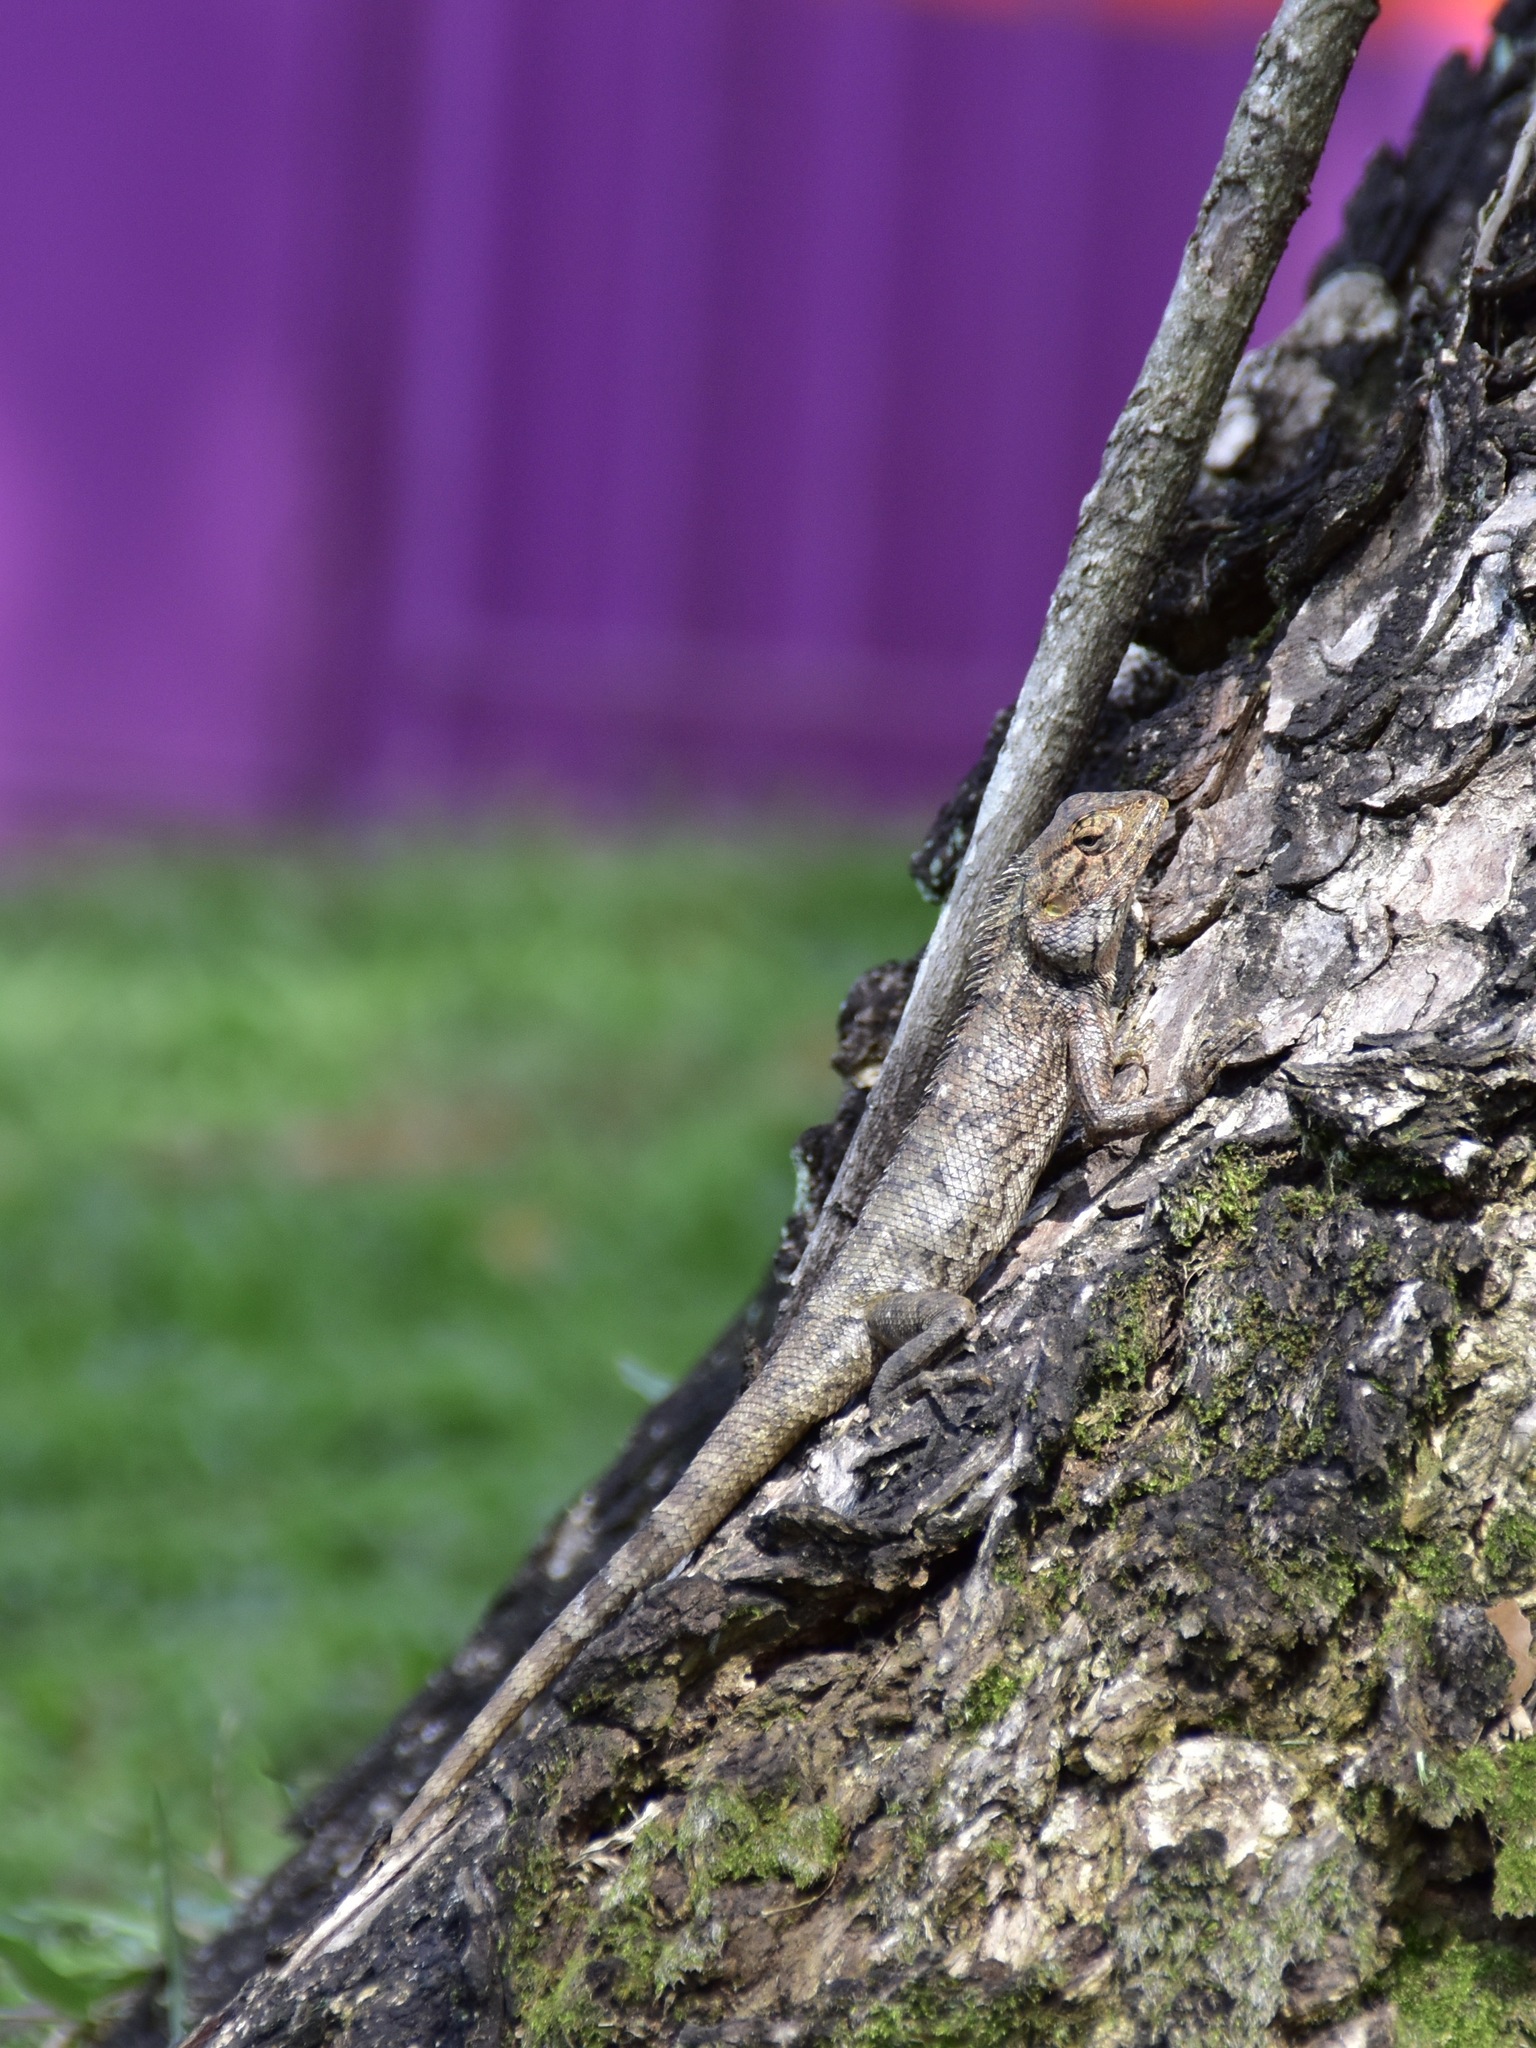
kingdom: Animalia
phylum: Chordata
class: Squamata
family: Agamidae
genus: Calotes
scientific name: Calotes versicolor
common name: Oriental garden lizard
